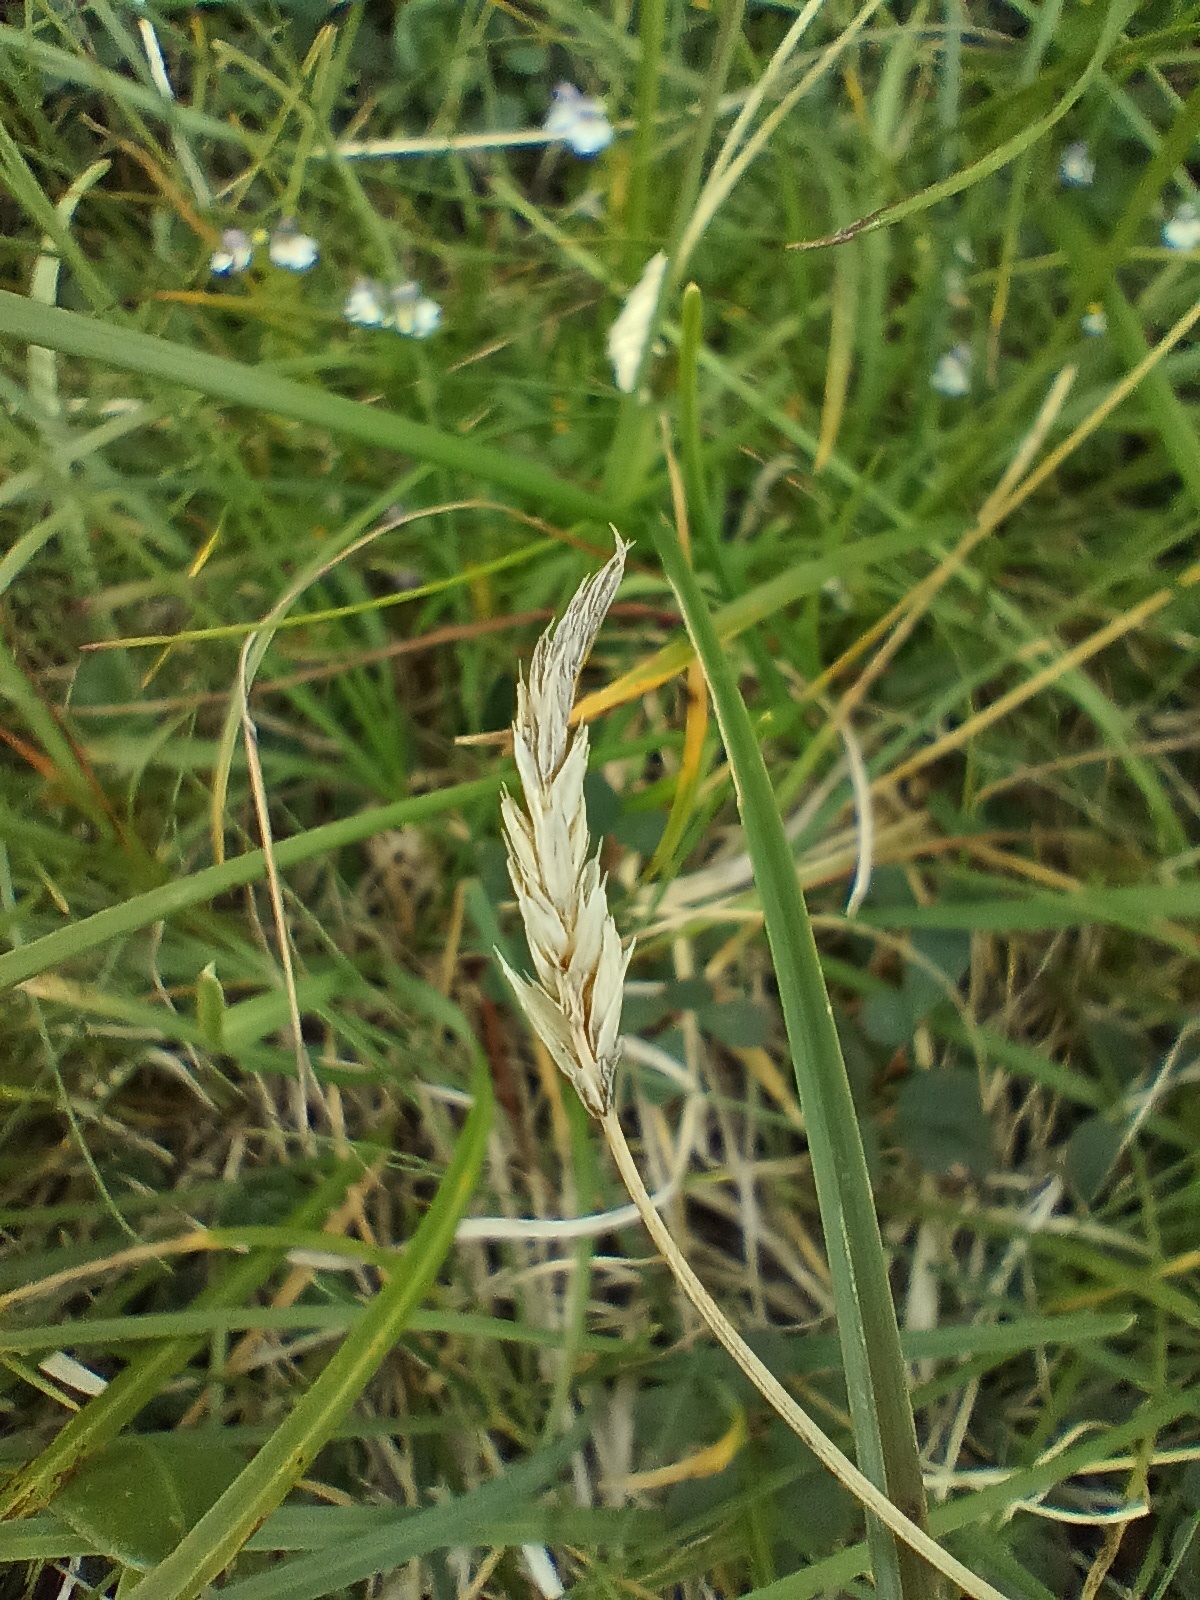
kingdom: Plantae
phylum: Tracheophyta
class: Liliopsida
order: Poales
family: Poaceae
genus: Sesleria
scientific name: Sesleria caerulea
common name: Blue moor-grass
